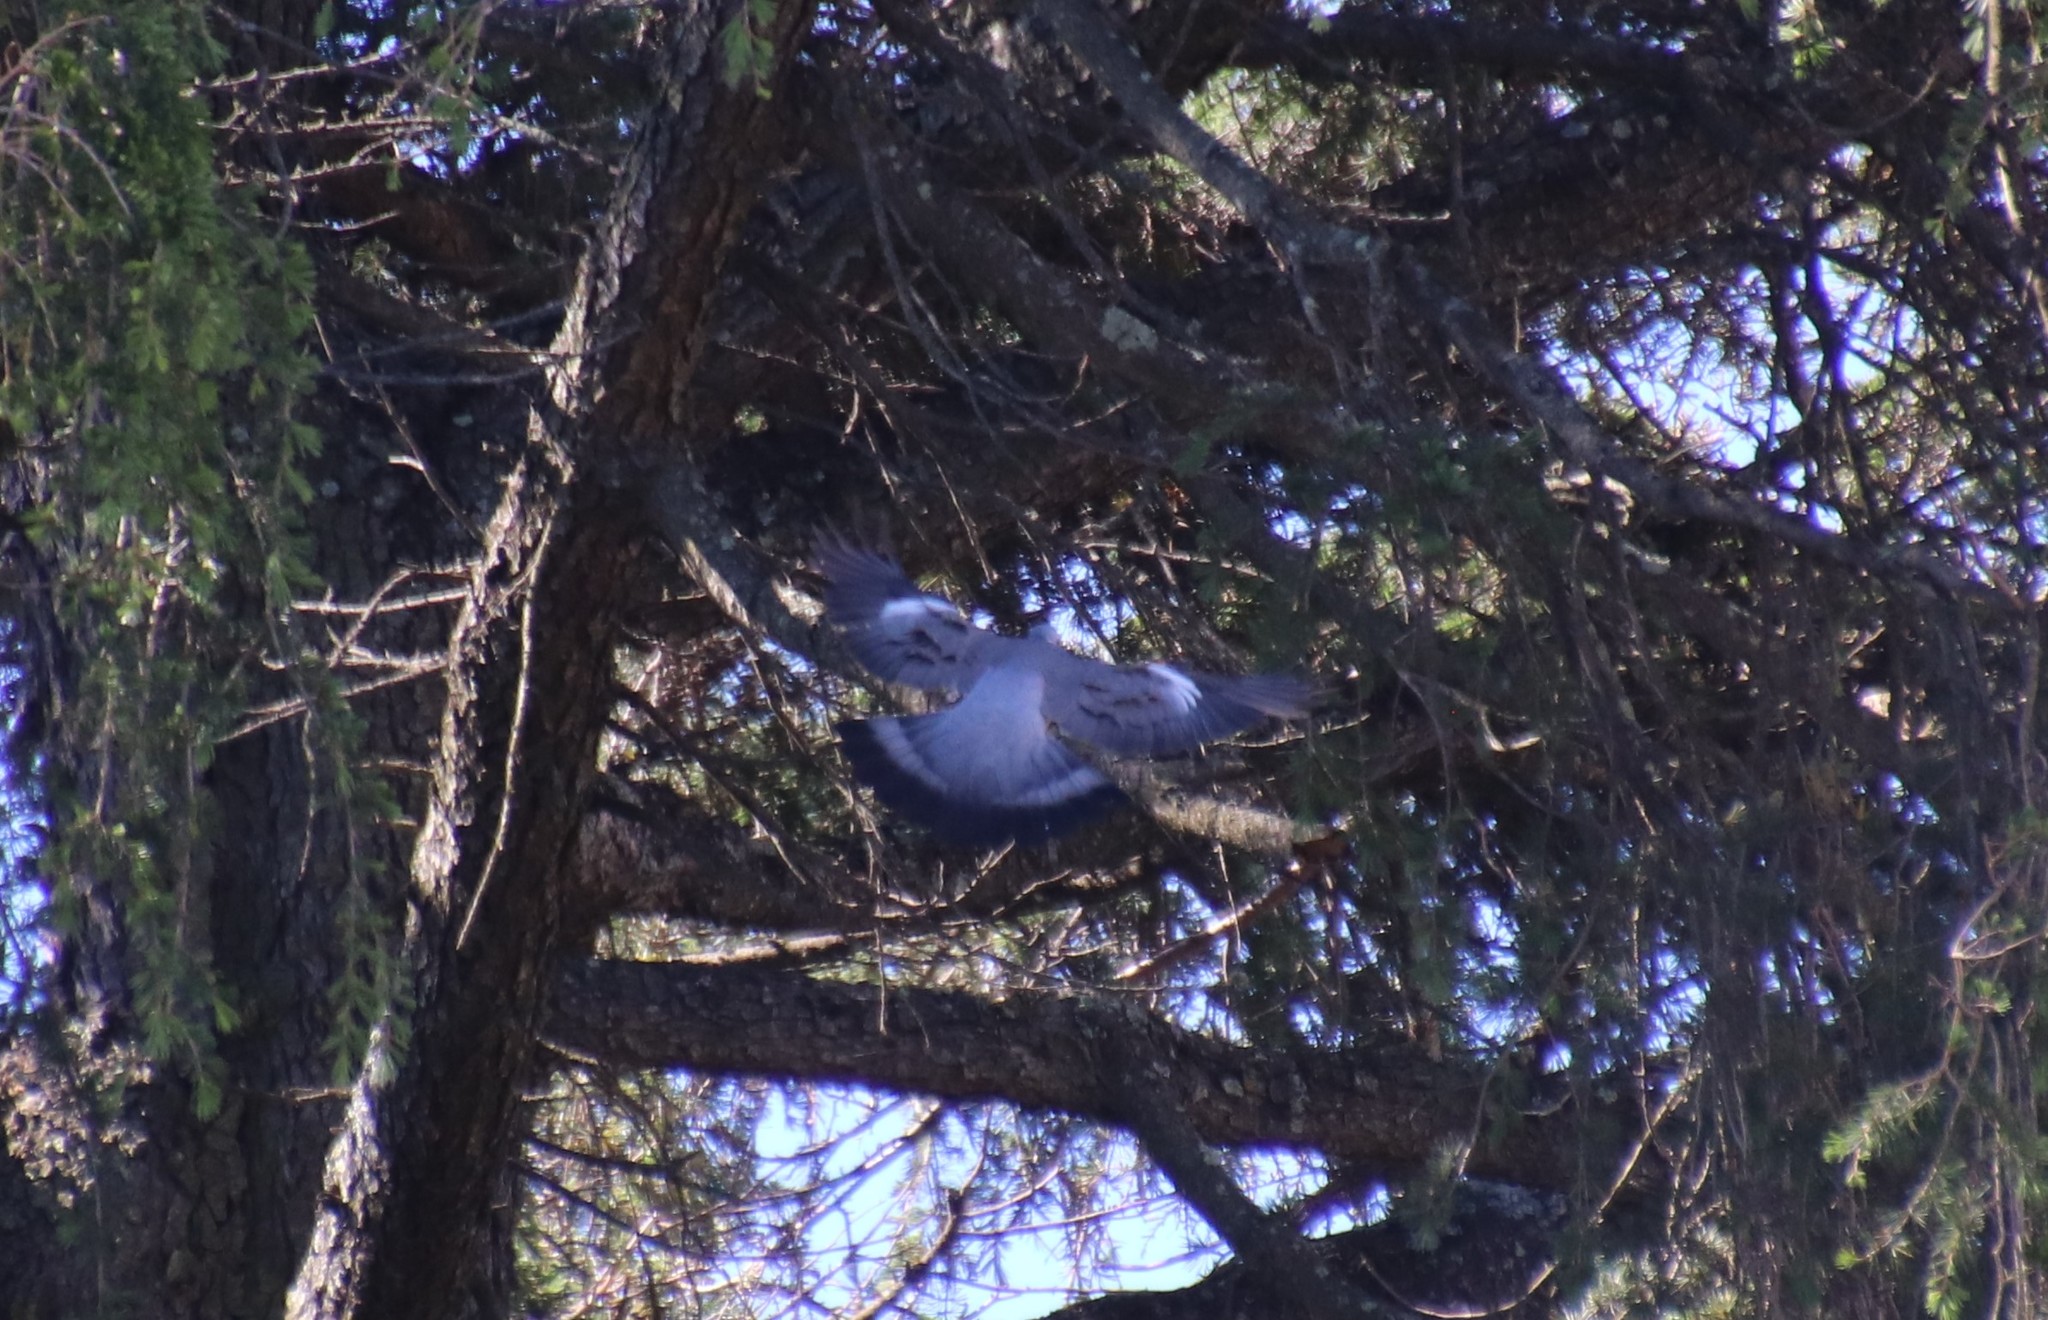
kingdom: Animalia
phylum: Chordata
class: Aves
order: Columbiformes
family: Columbidae
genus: Columba
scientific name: Columba palumbus
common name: Common wood pigeon
